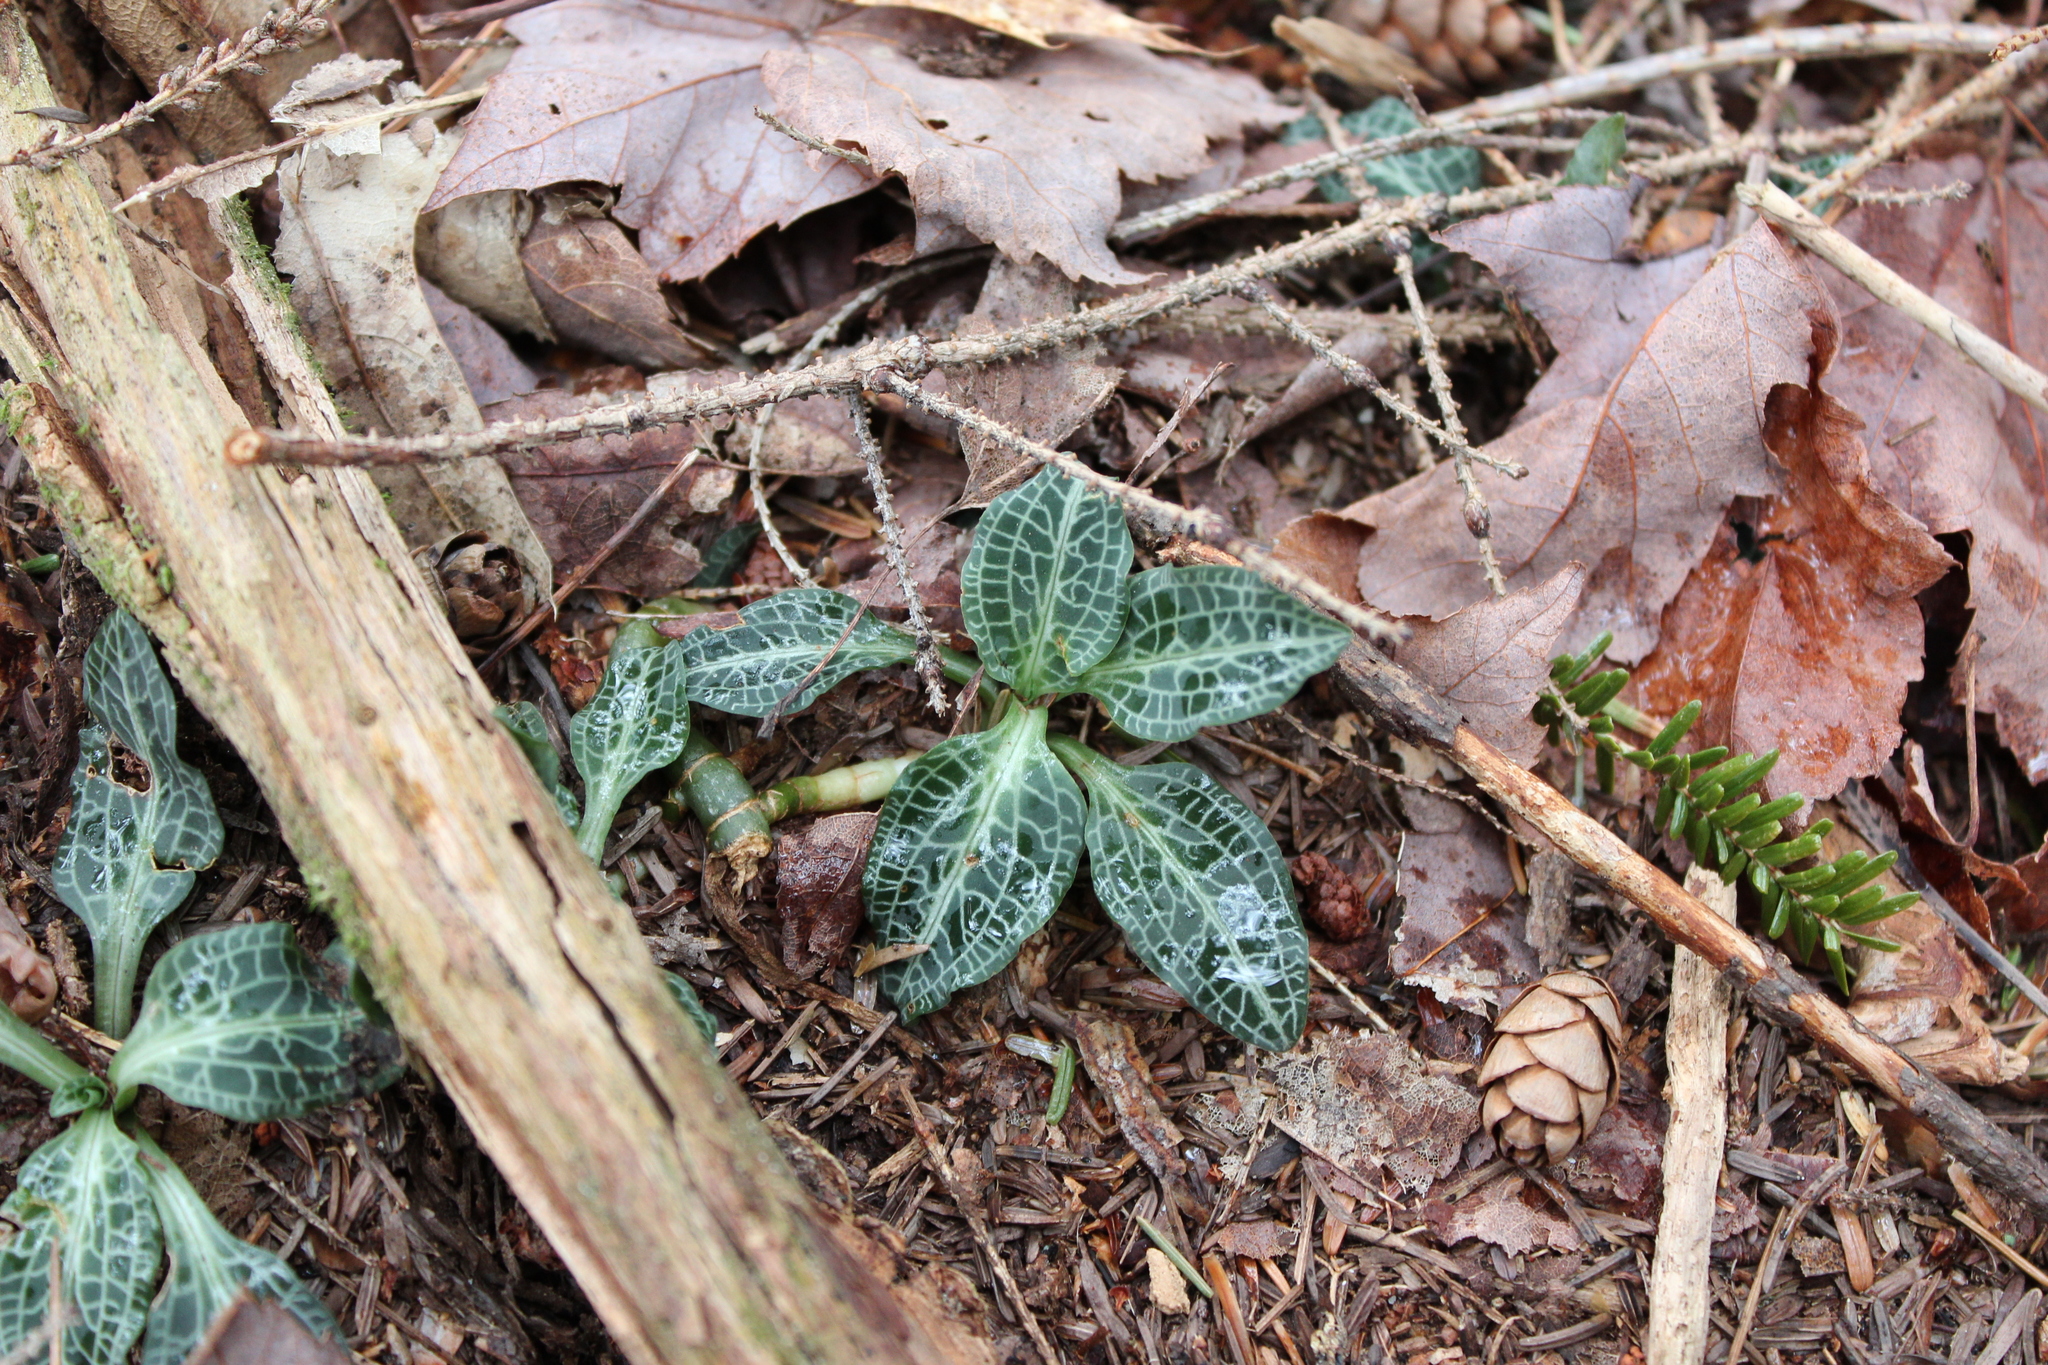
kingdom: Plantae
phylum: Tracheophyta
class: Liliopsida
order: Asparagales
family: Orchidaceae
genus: Goodyera
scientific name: Goodyera pubescens
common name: Downy rattlesnake-plantain
